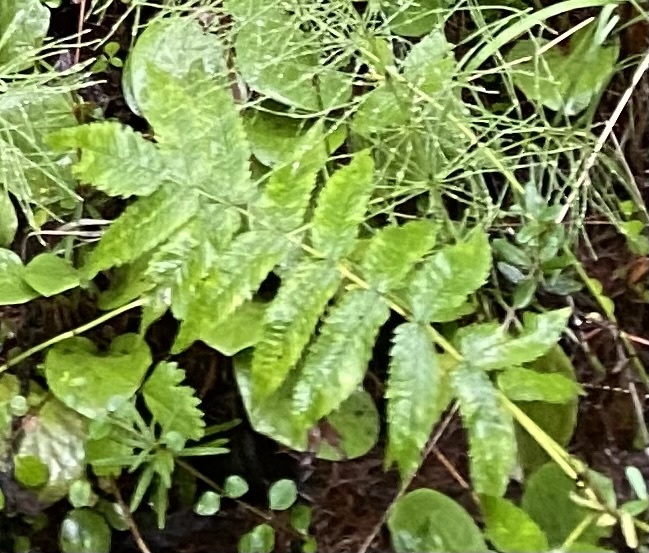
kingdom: Plantae
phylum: Tracheophyta
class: Magnoliopsida
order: Rosales
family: Rosaceae
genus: Sorbaria
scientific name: Sorbaria sorbifolia
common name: False spiraea
